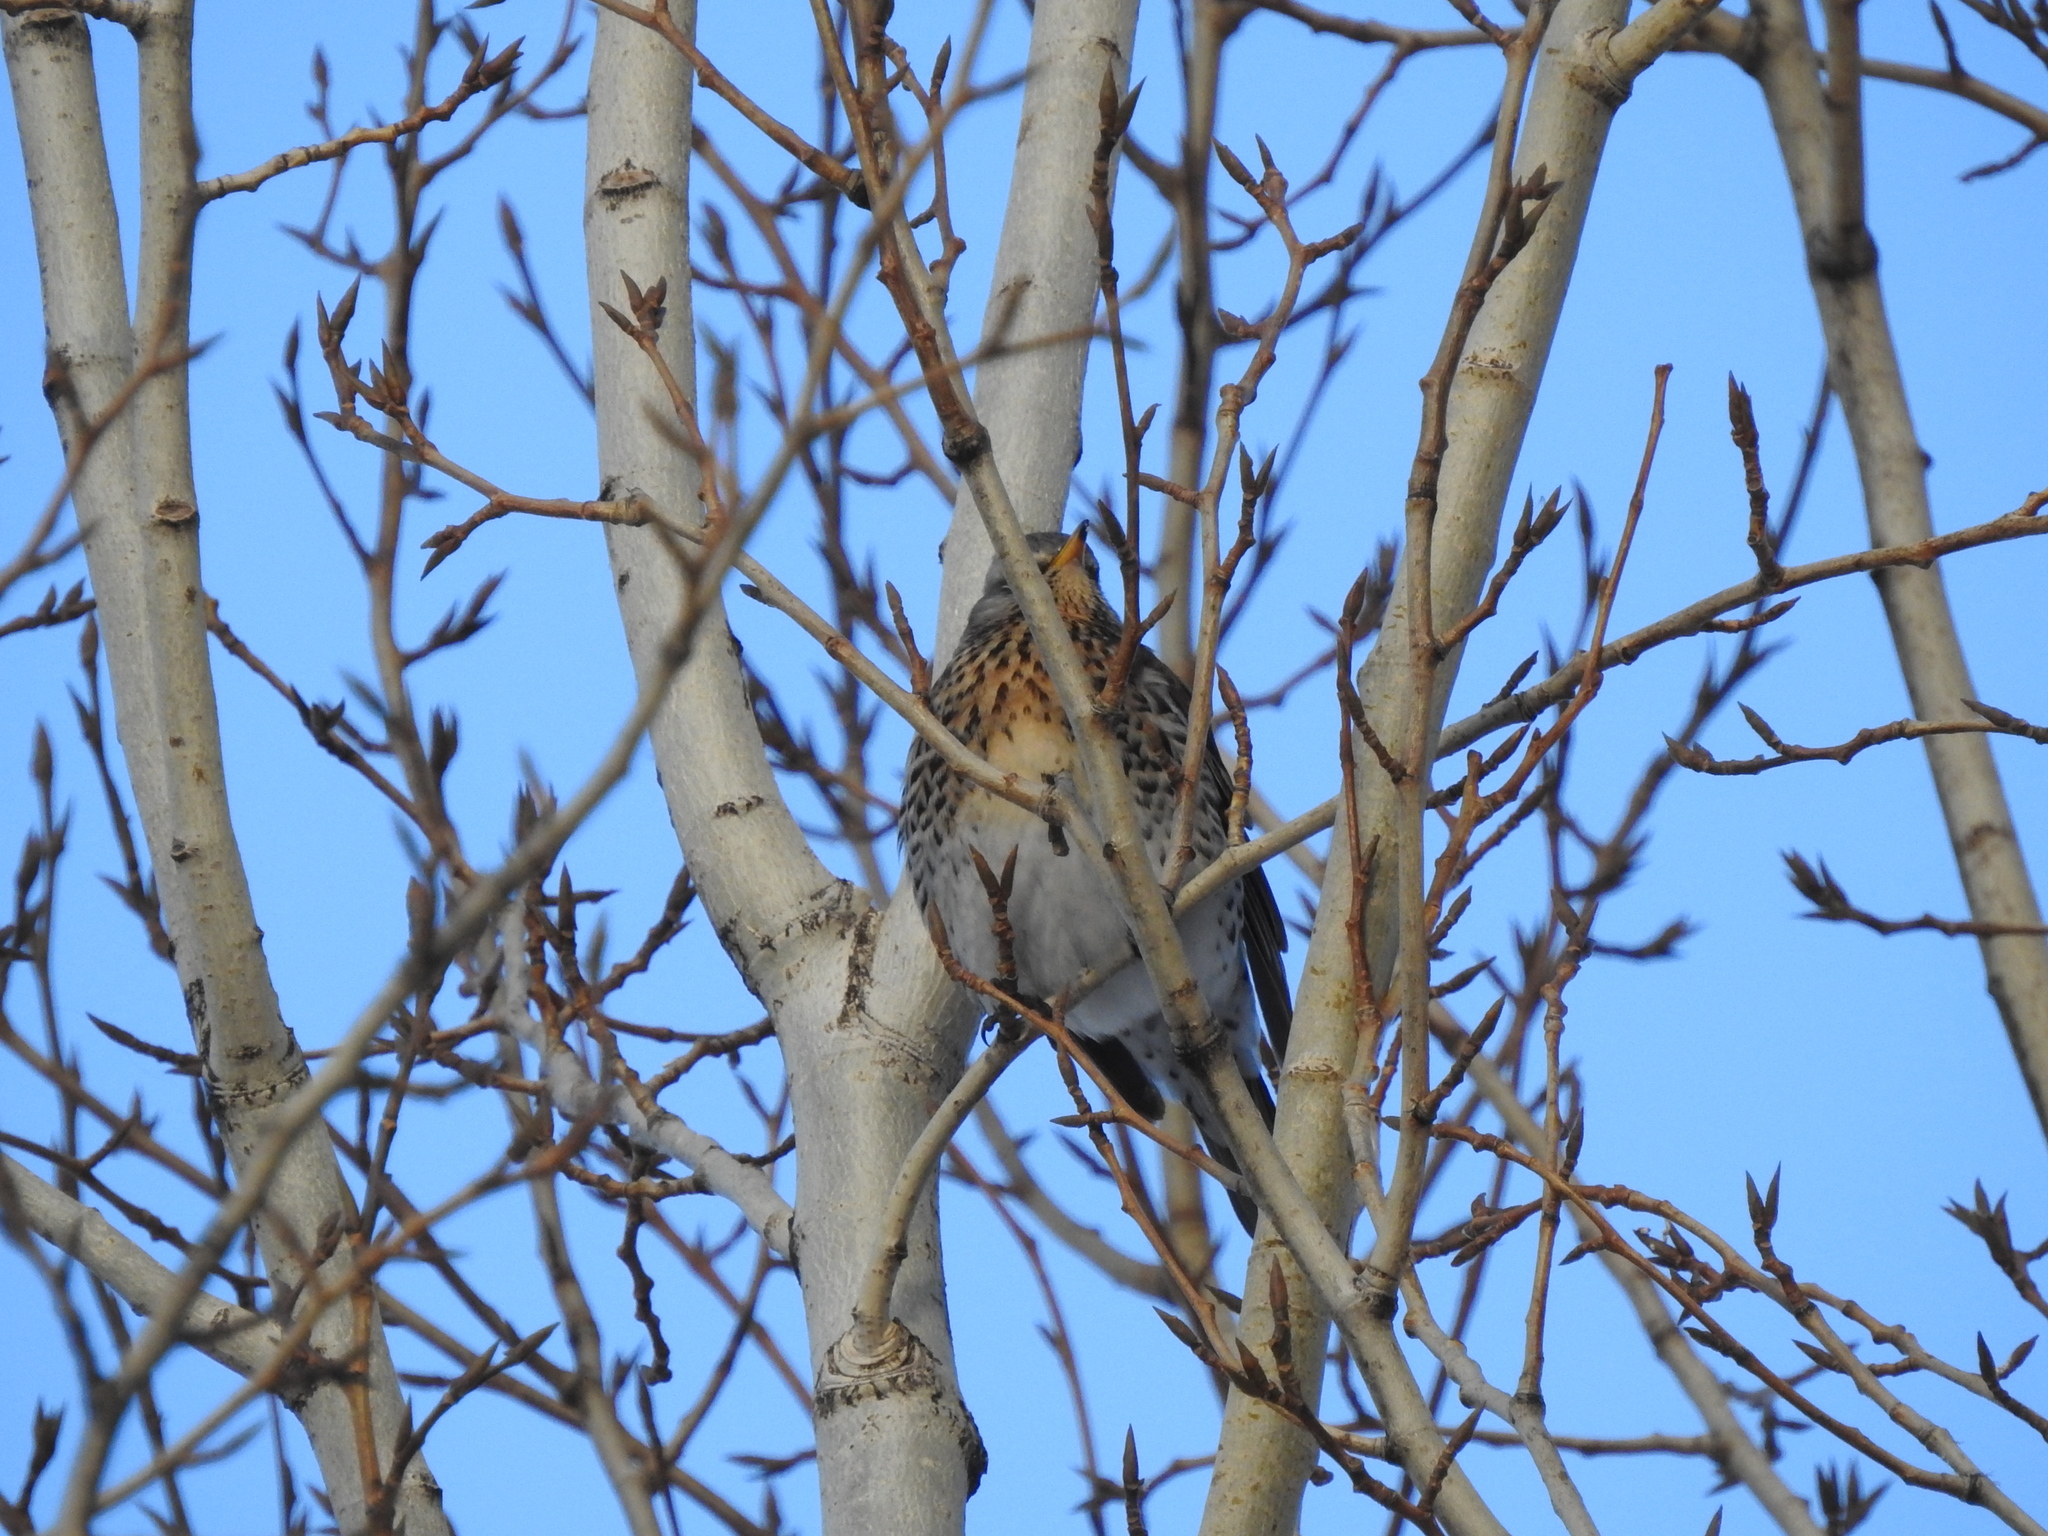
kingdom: Animalia
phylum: Chordata
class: Aves
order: Passeriformes
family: Turdidae
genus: Turdus
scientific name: Turdus pilaris
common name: Fieldfare
